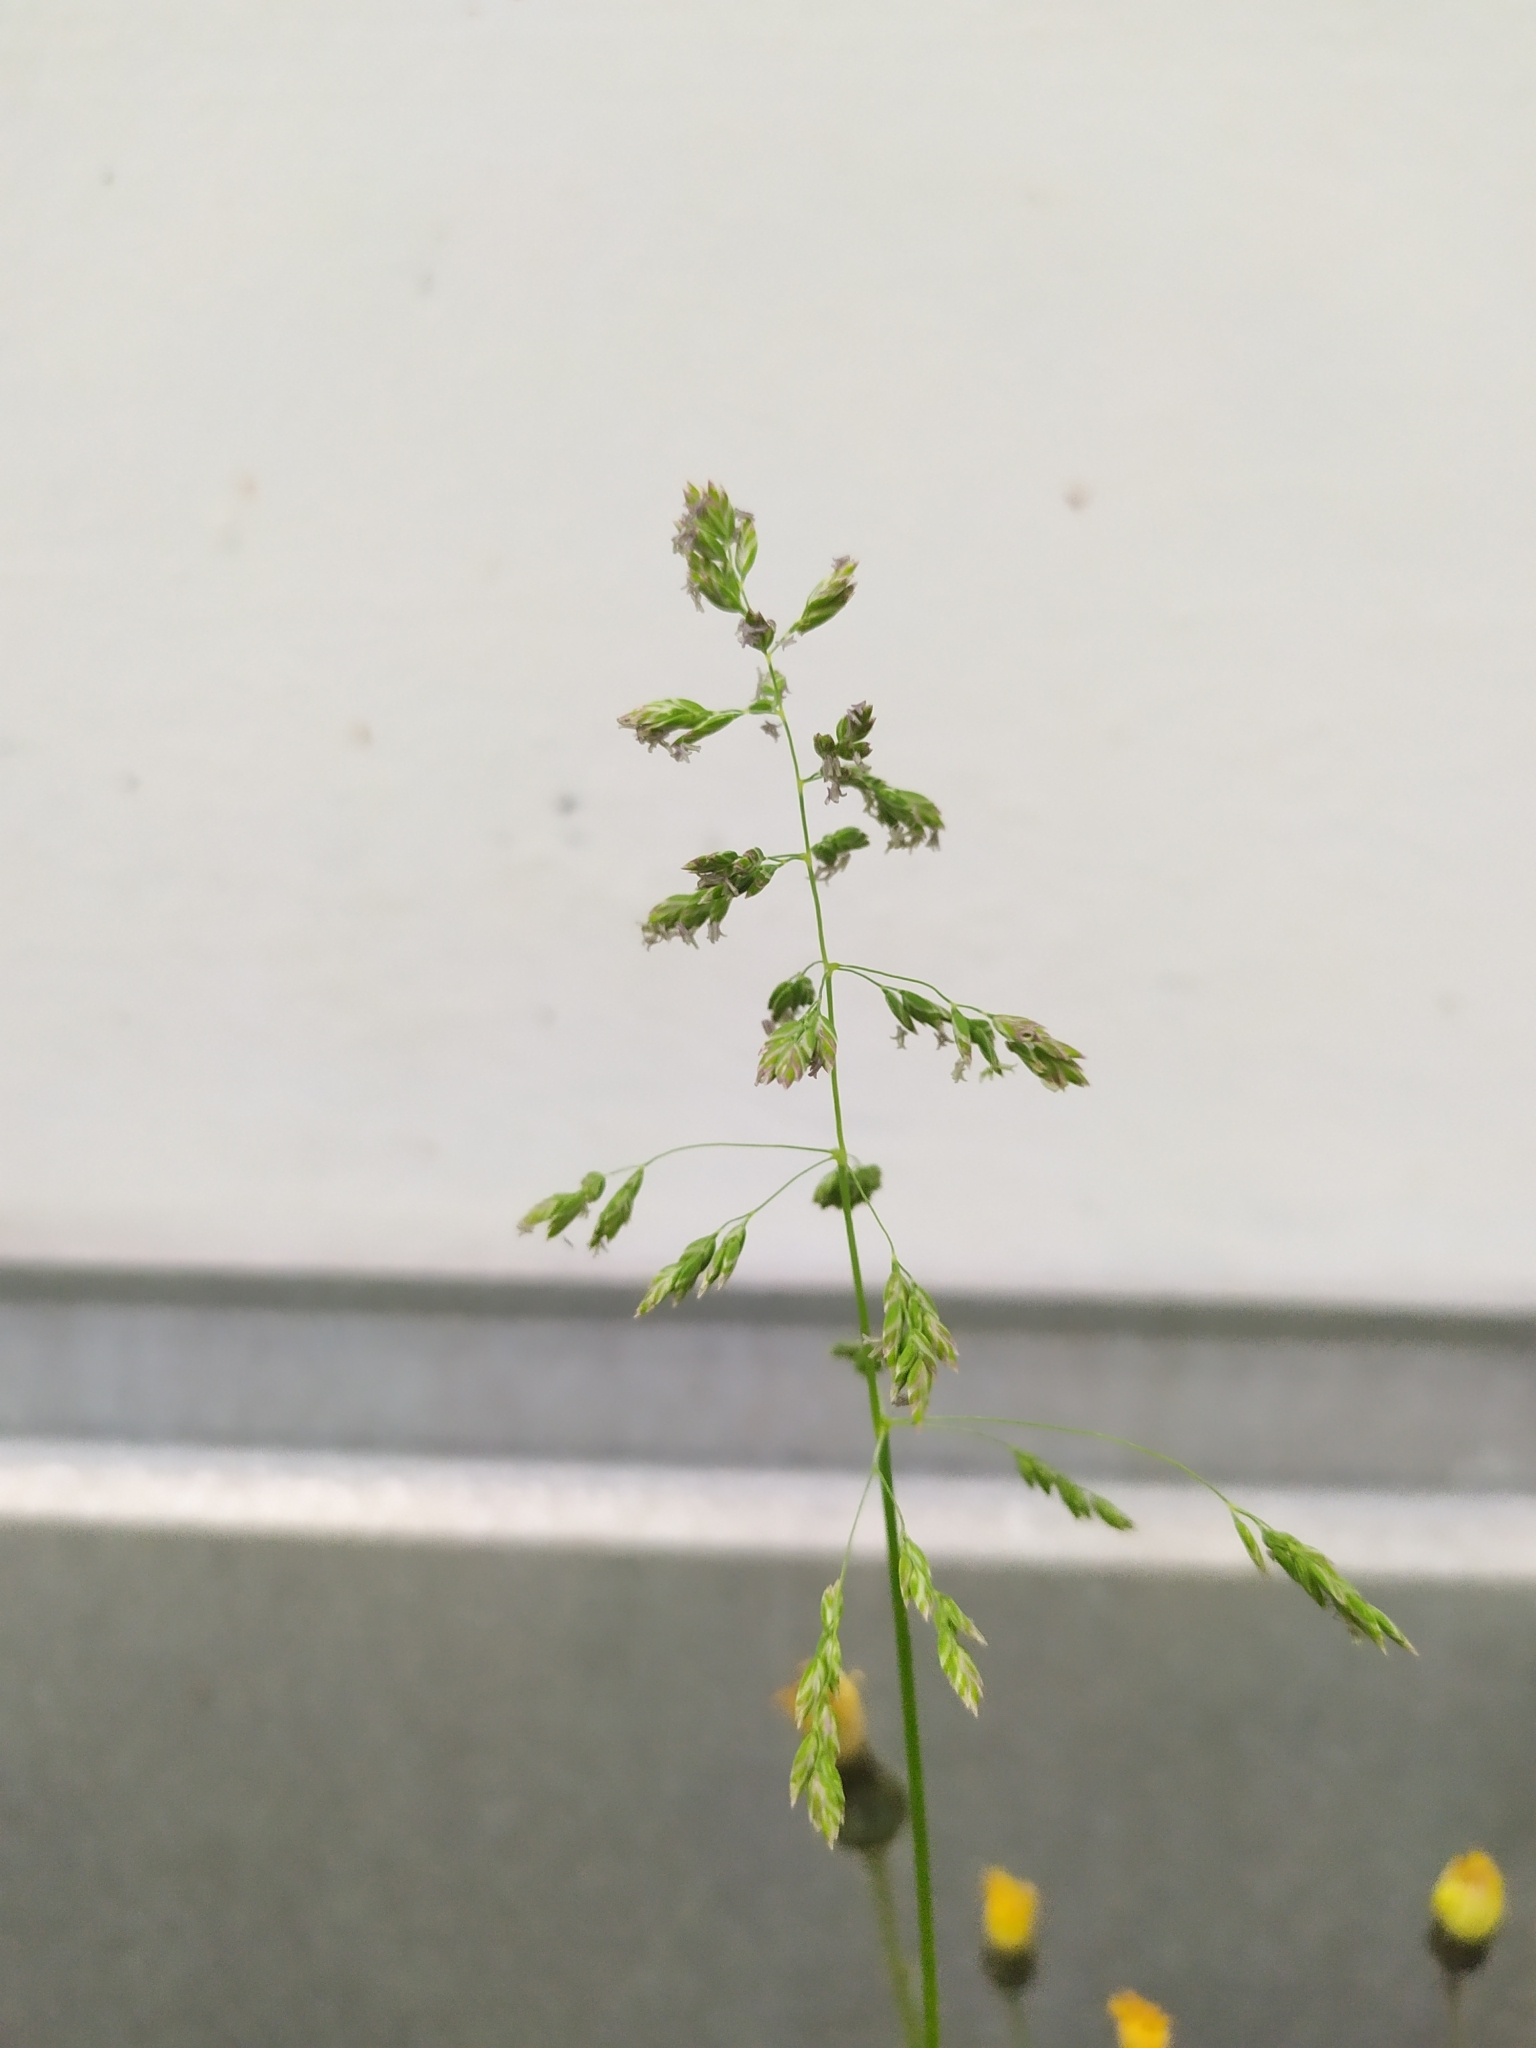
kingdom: Plantae
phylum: Tracheophyta
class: Liliopsida
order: Poales
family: Poaceae
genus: Poa
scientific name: Poa pratensis
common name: Kentucky bluegrass
